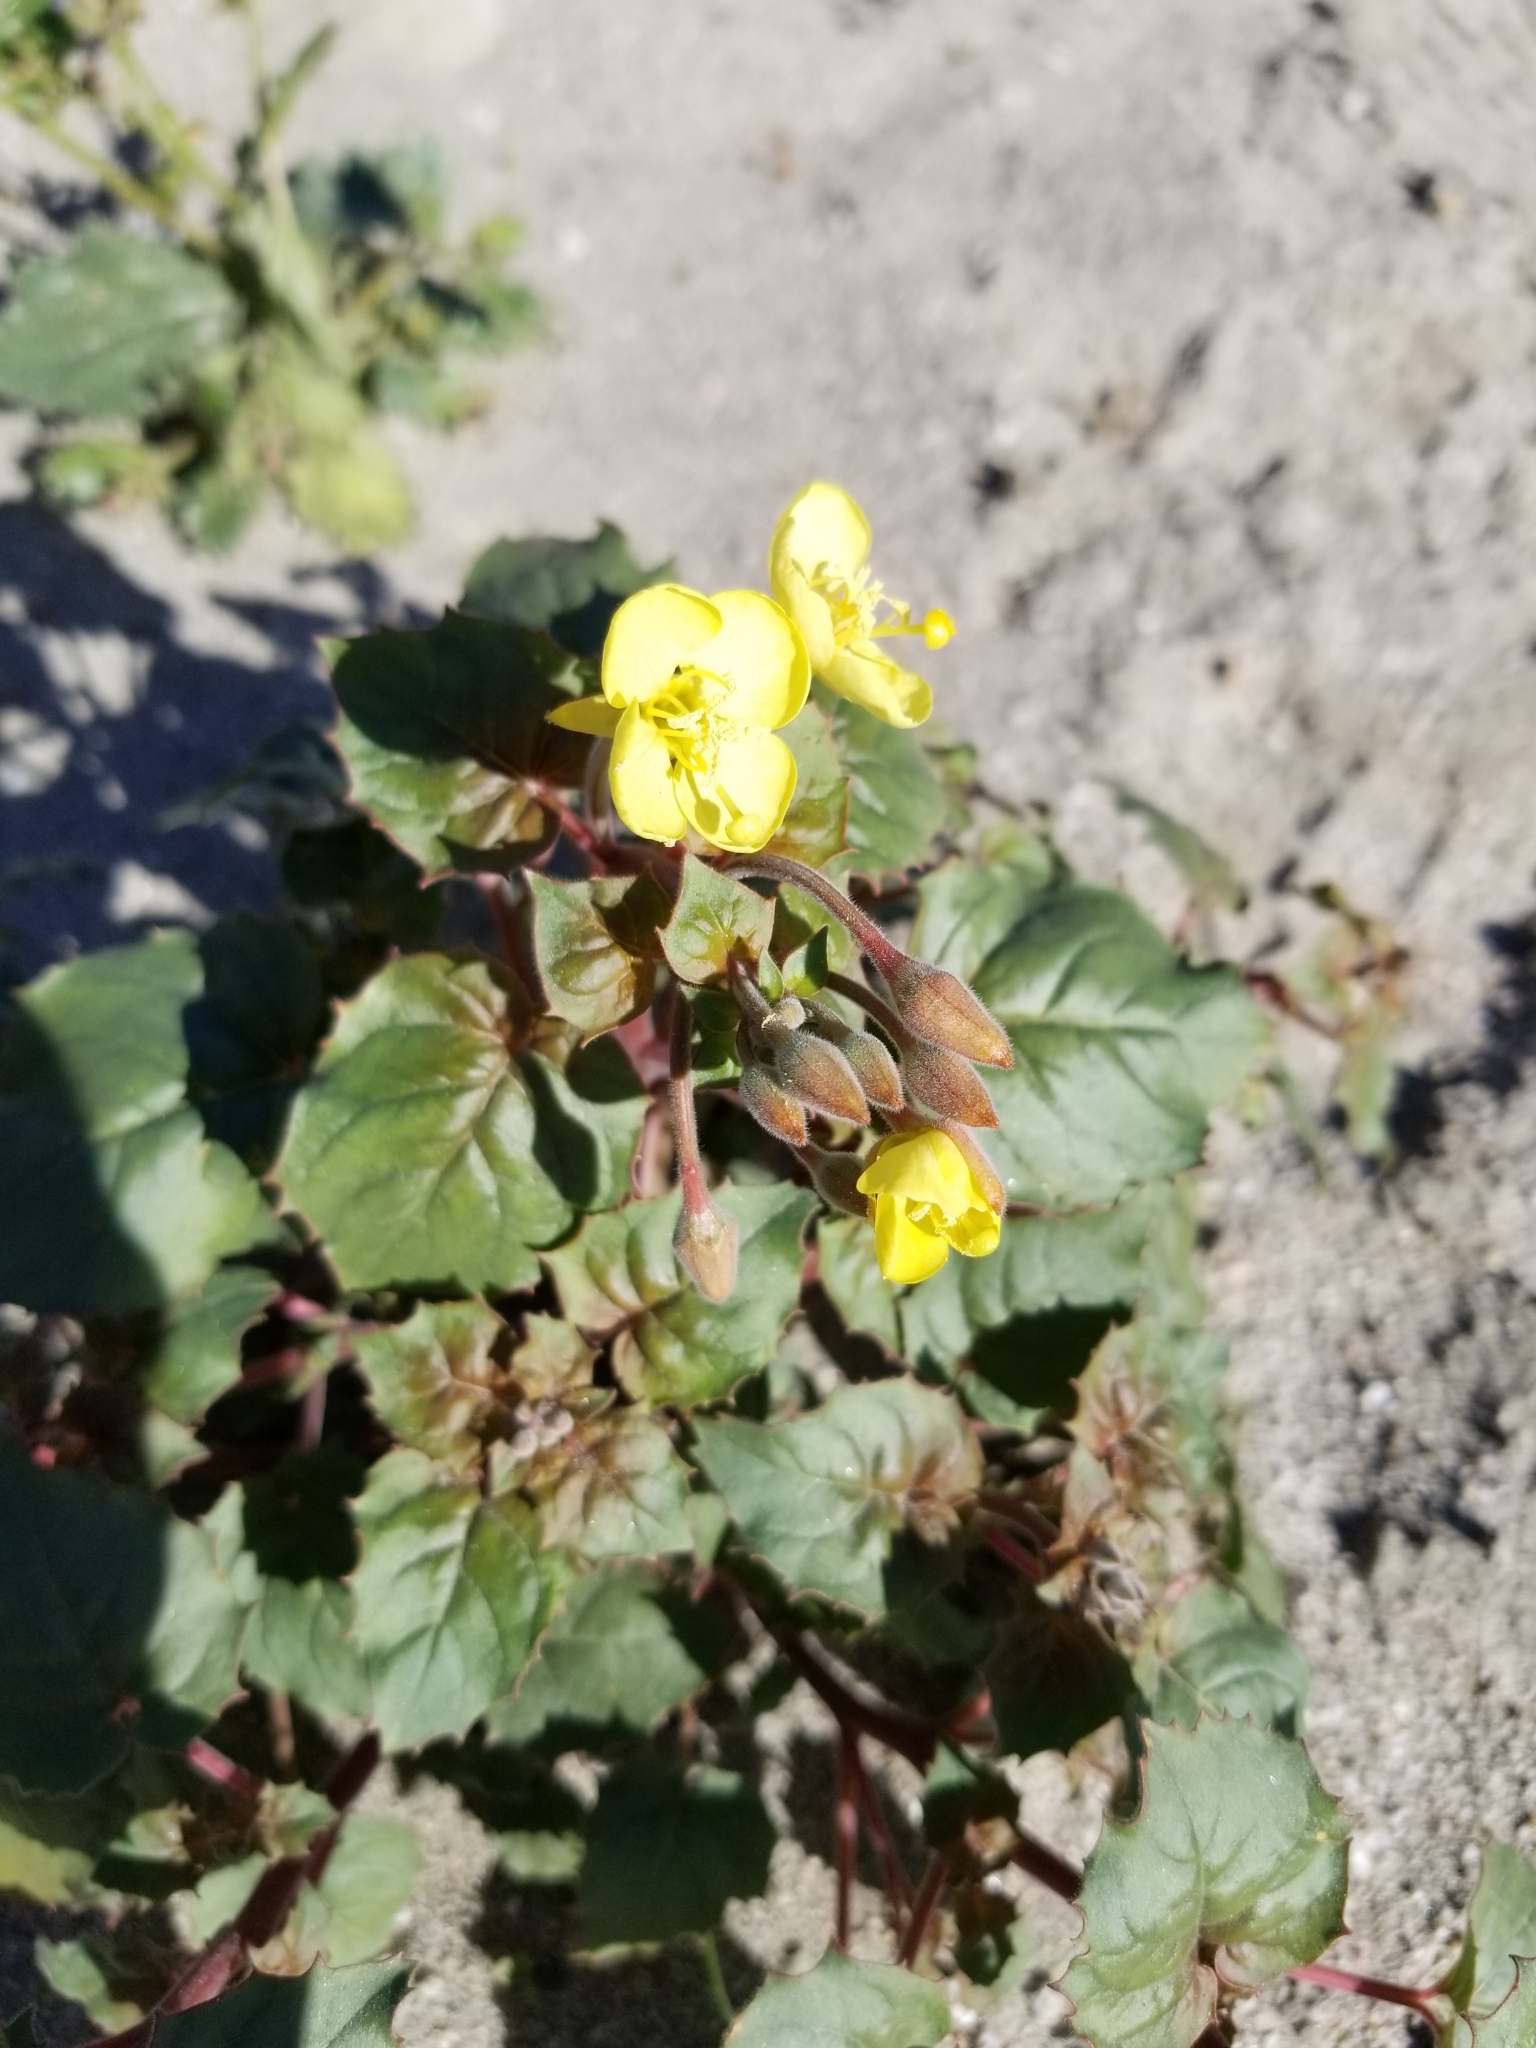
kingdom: Plantae
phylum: Tracheophyta
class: Magnoliopsida
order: Myrtales
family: Onagraceae
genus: Chylismia
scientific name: Chylismia cardiophylla
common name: Heartleaf suncup
